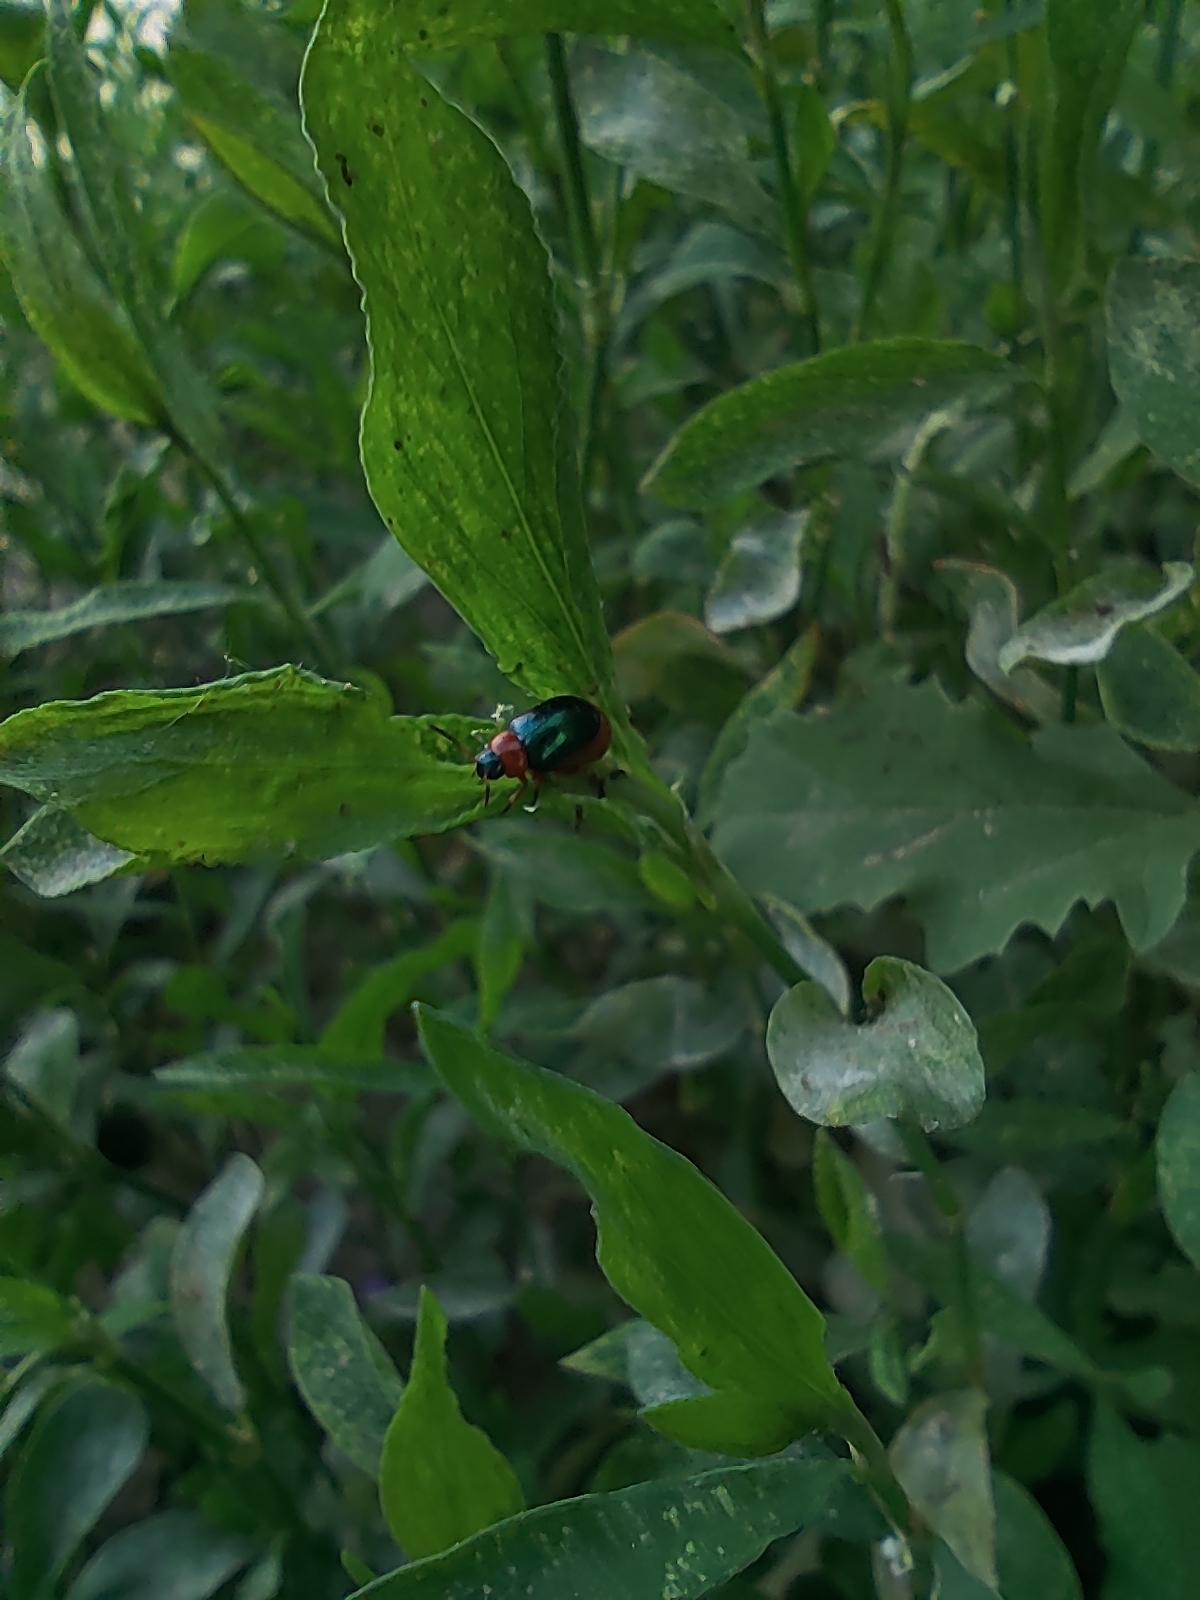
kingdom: Animalia
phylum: Arthropoda
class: Insecta
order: Coleoptera
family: Chrysomelidae
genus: Gastrophysa
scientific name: Gastrophysa polygoni
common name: Knotweed leaf beetle
